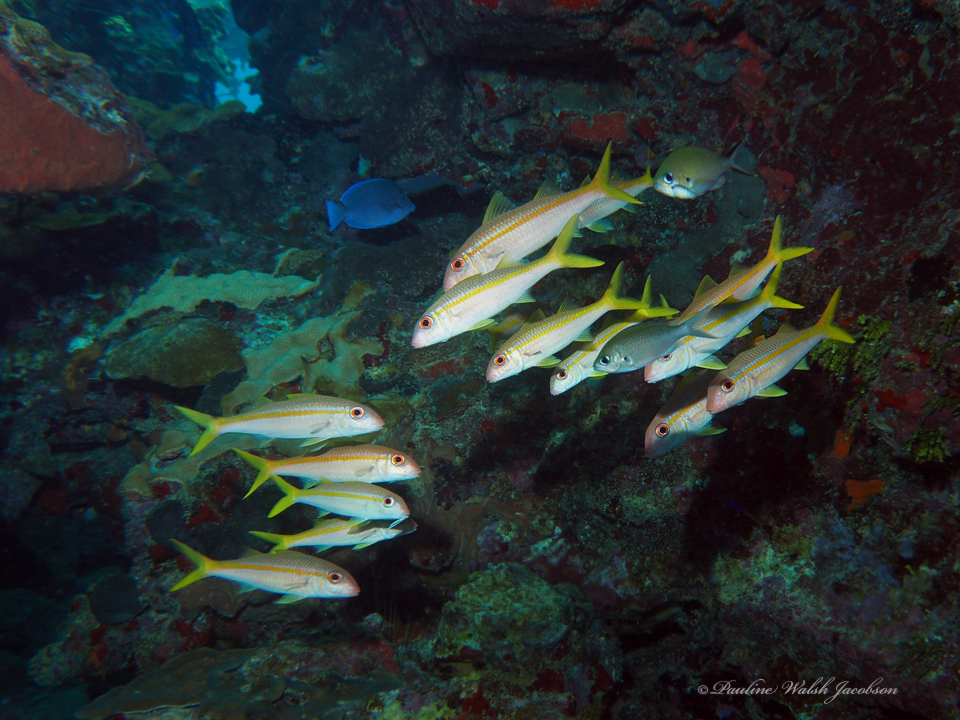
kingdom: Animalia
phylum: Chordata
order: Perciformes
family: Mullidae
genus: Mulloidichthys
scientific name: Mulloidichthys martinicus
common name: Yellow goatfish
